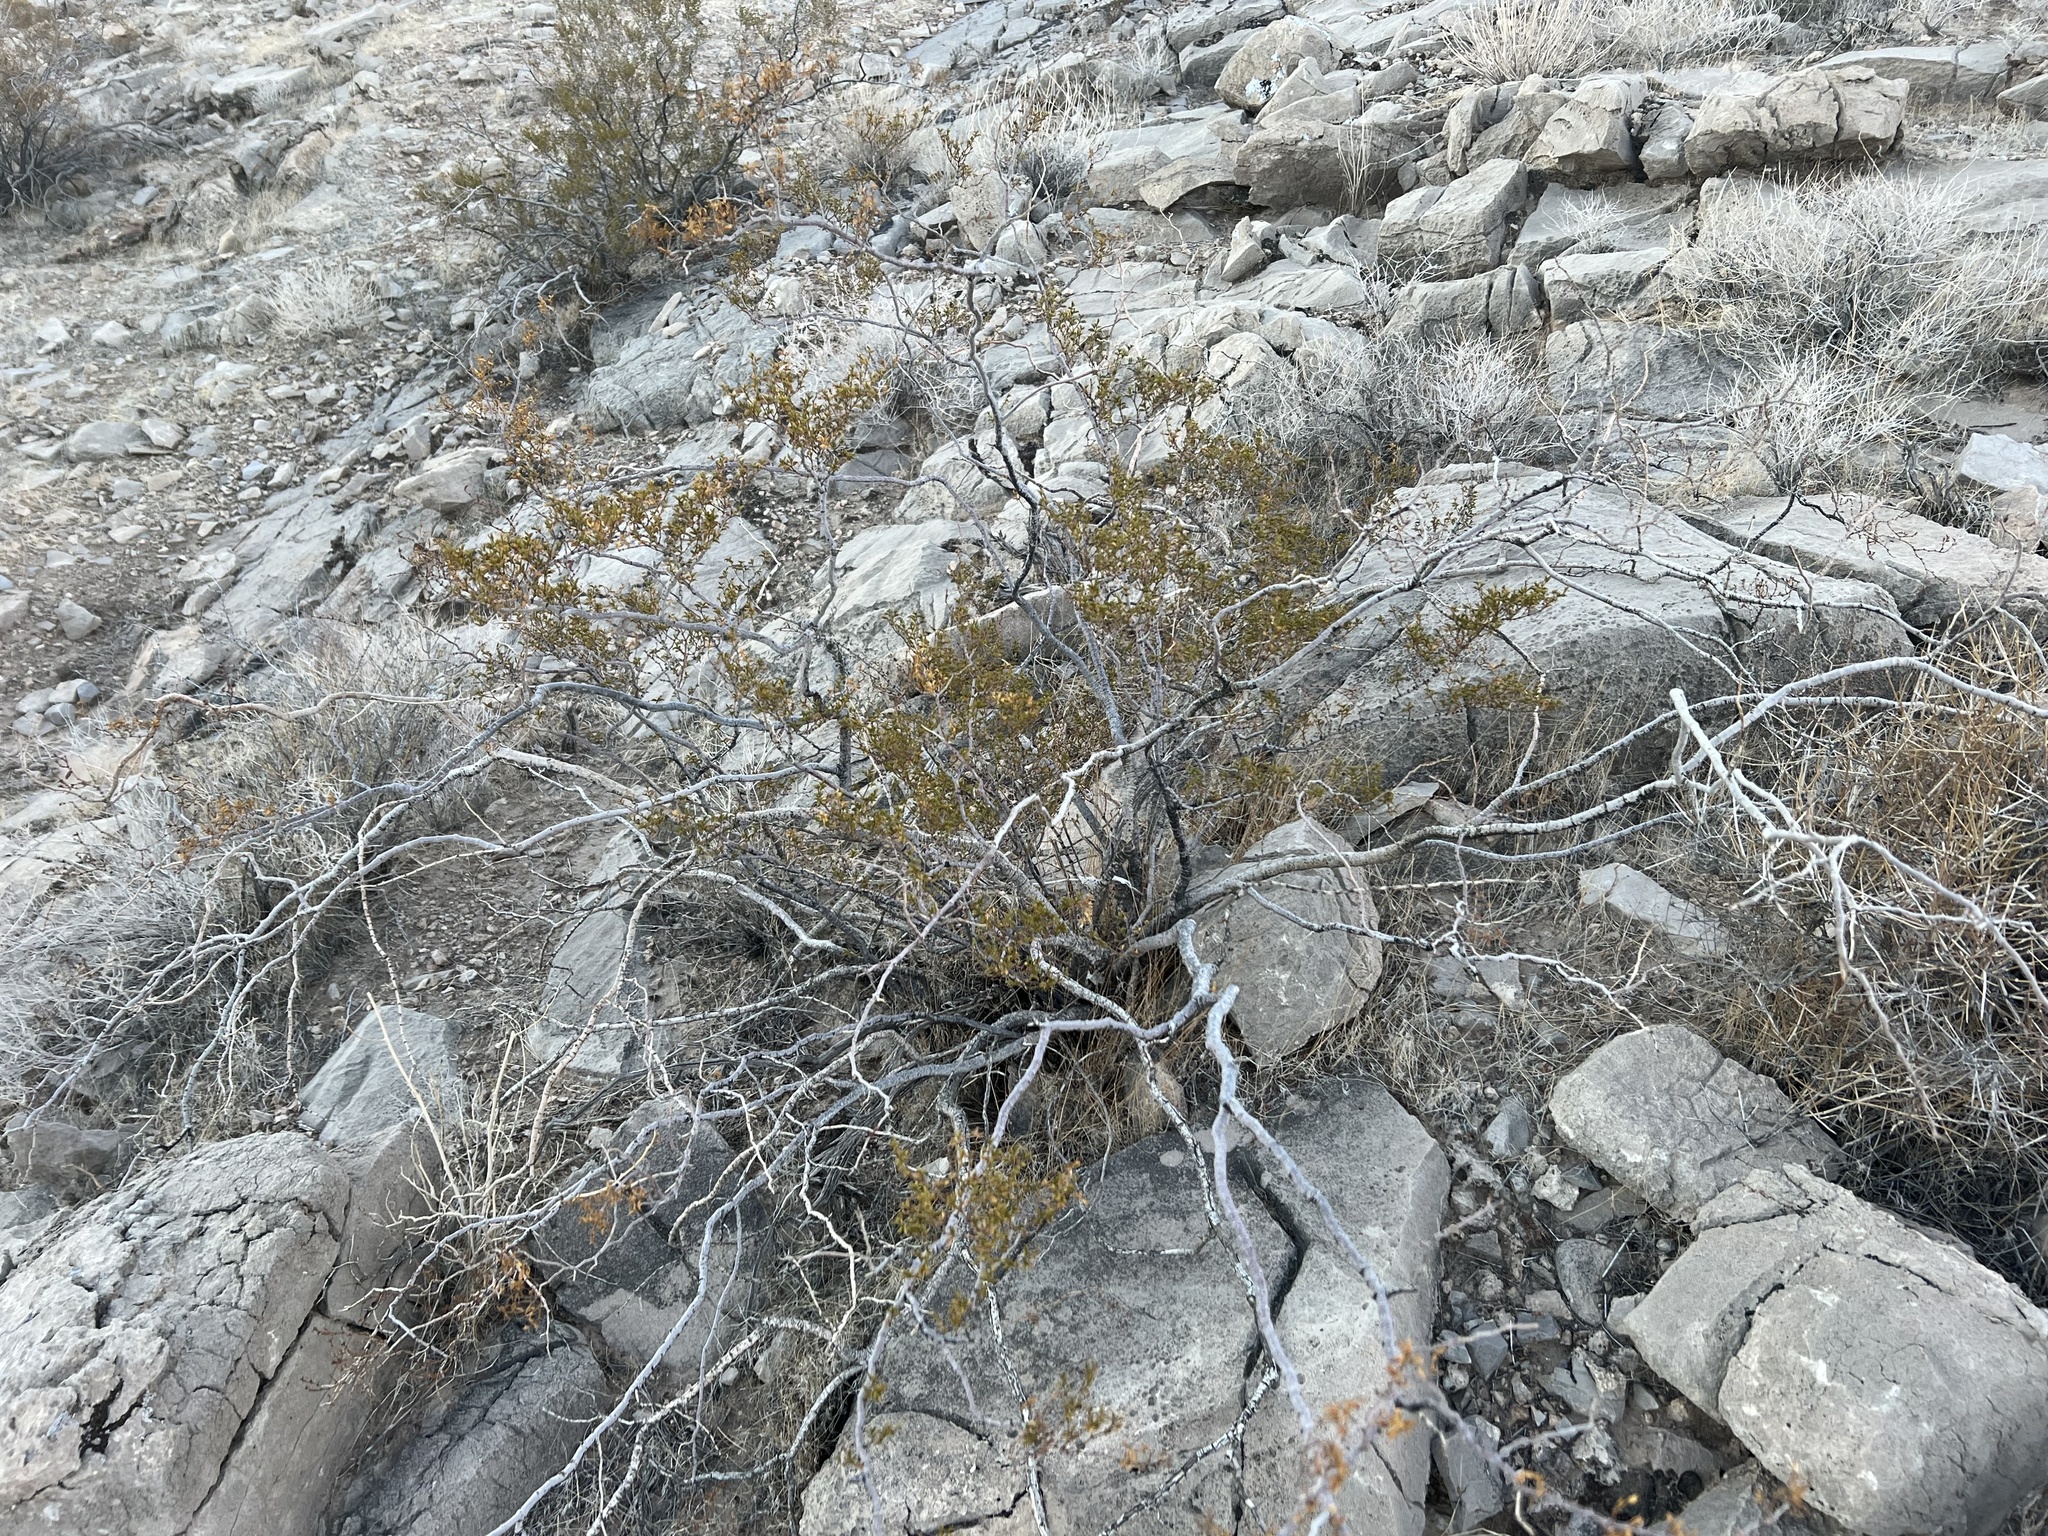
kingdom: Plantae
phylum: Tracheophyta
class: Magnoliopsida
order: Zygophyllales
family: Zygophyllaceae
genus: Larrea
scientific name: Larrea tridentata
